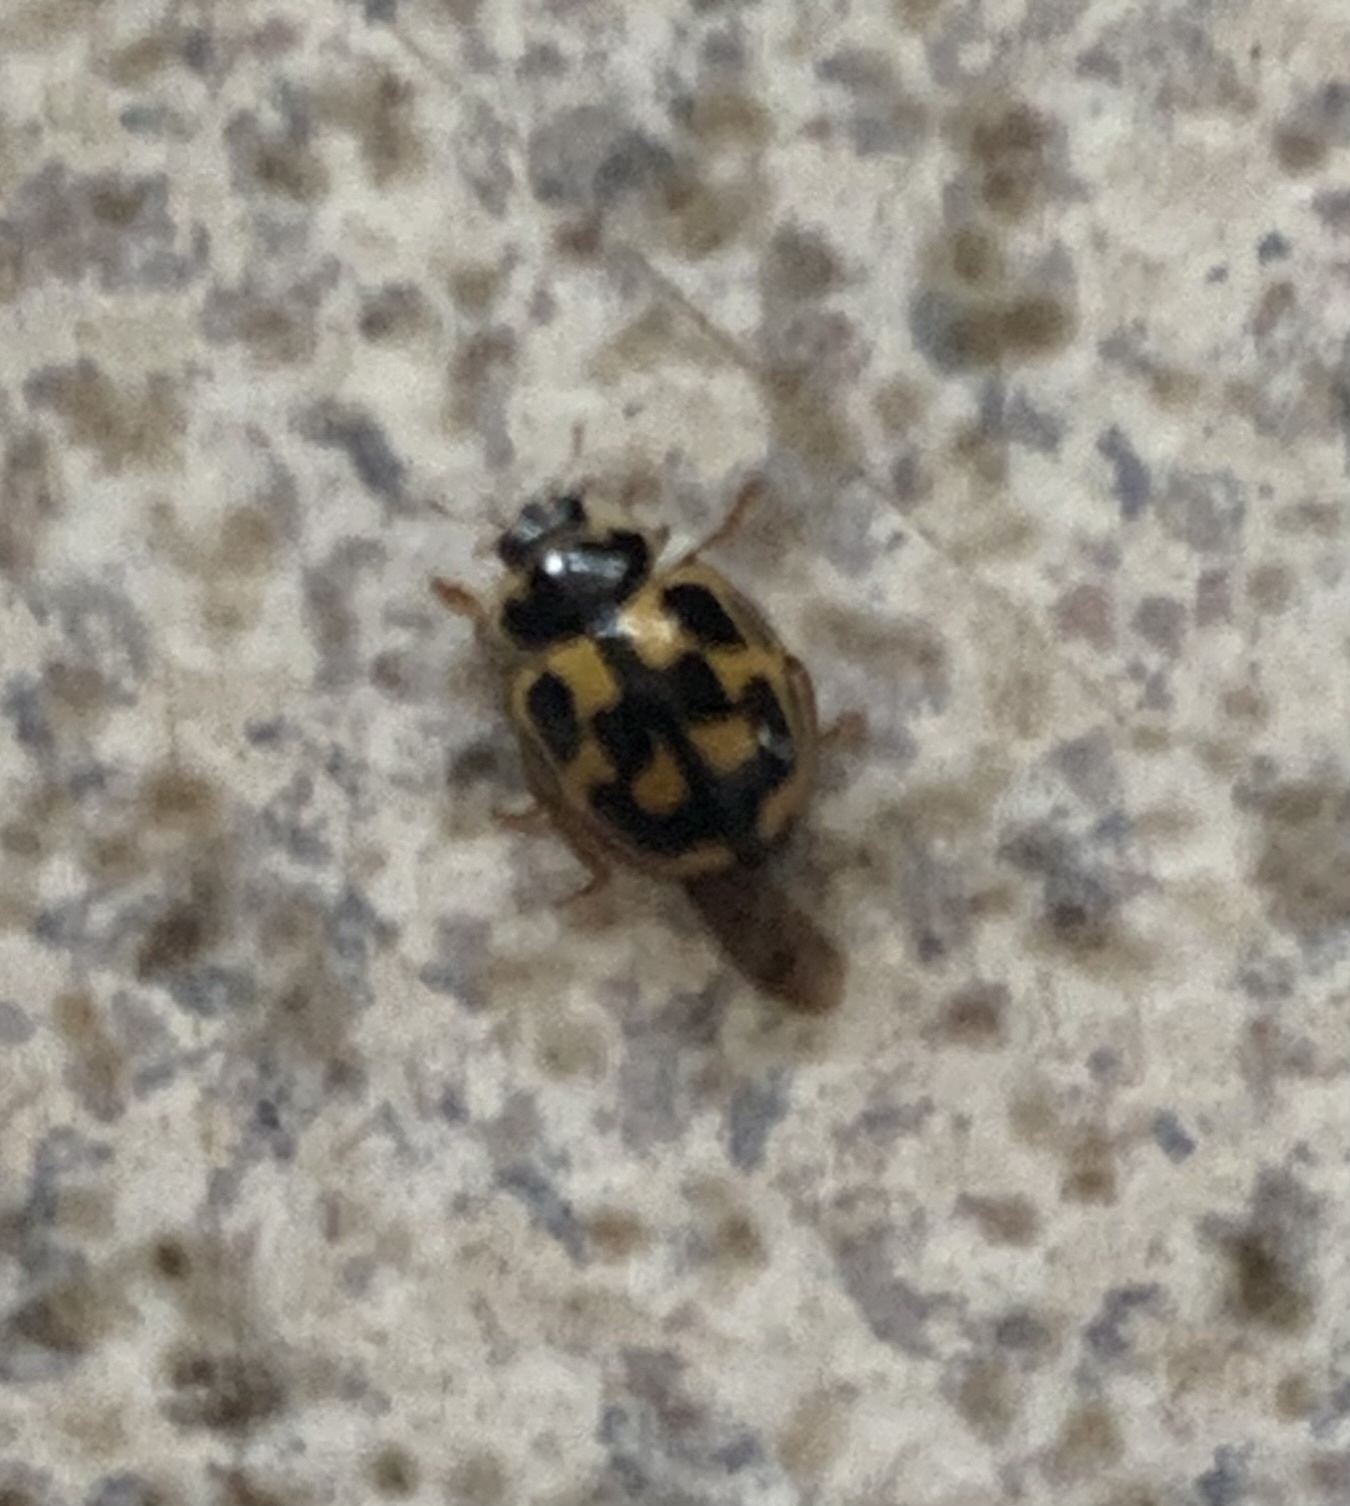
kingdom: Animalia
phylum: Arthropoda
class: Insecta
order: Coleoptera
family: Coccinellidae
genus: Propylaea
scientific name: Propylaea quatuordecimpunctata
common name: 14-spotted ladybird beetle
